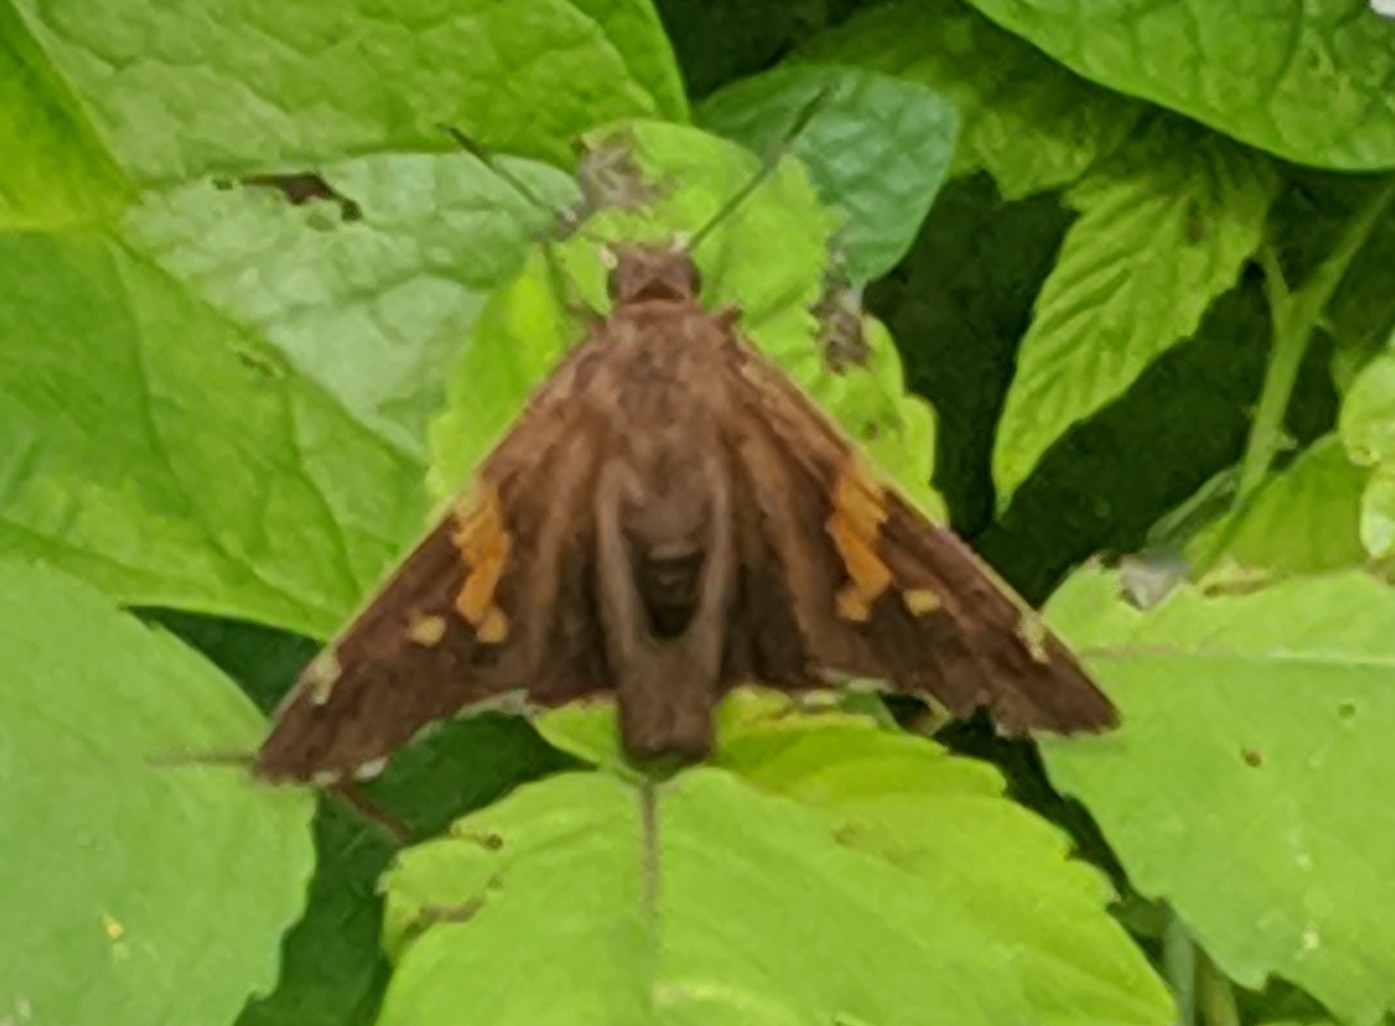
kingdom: Animalia
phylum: Arthropoda
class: Insecta
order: Lepidoptera
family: Hesperiidae
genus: Epargyreus
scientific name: Epargyreus clarus
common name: Silver-spotted skipper
